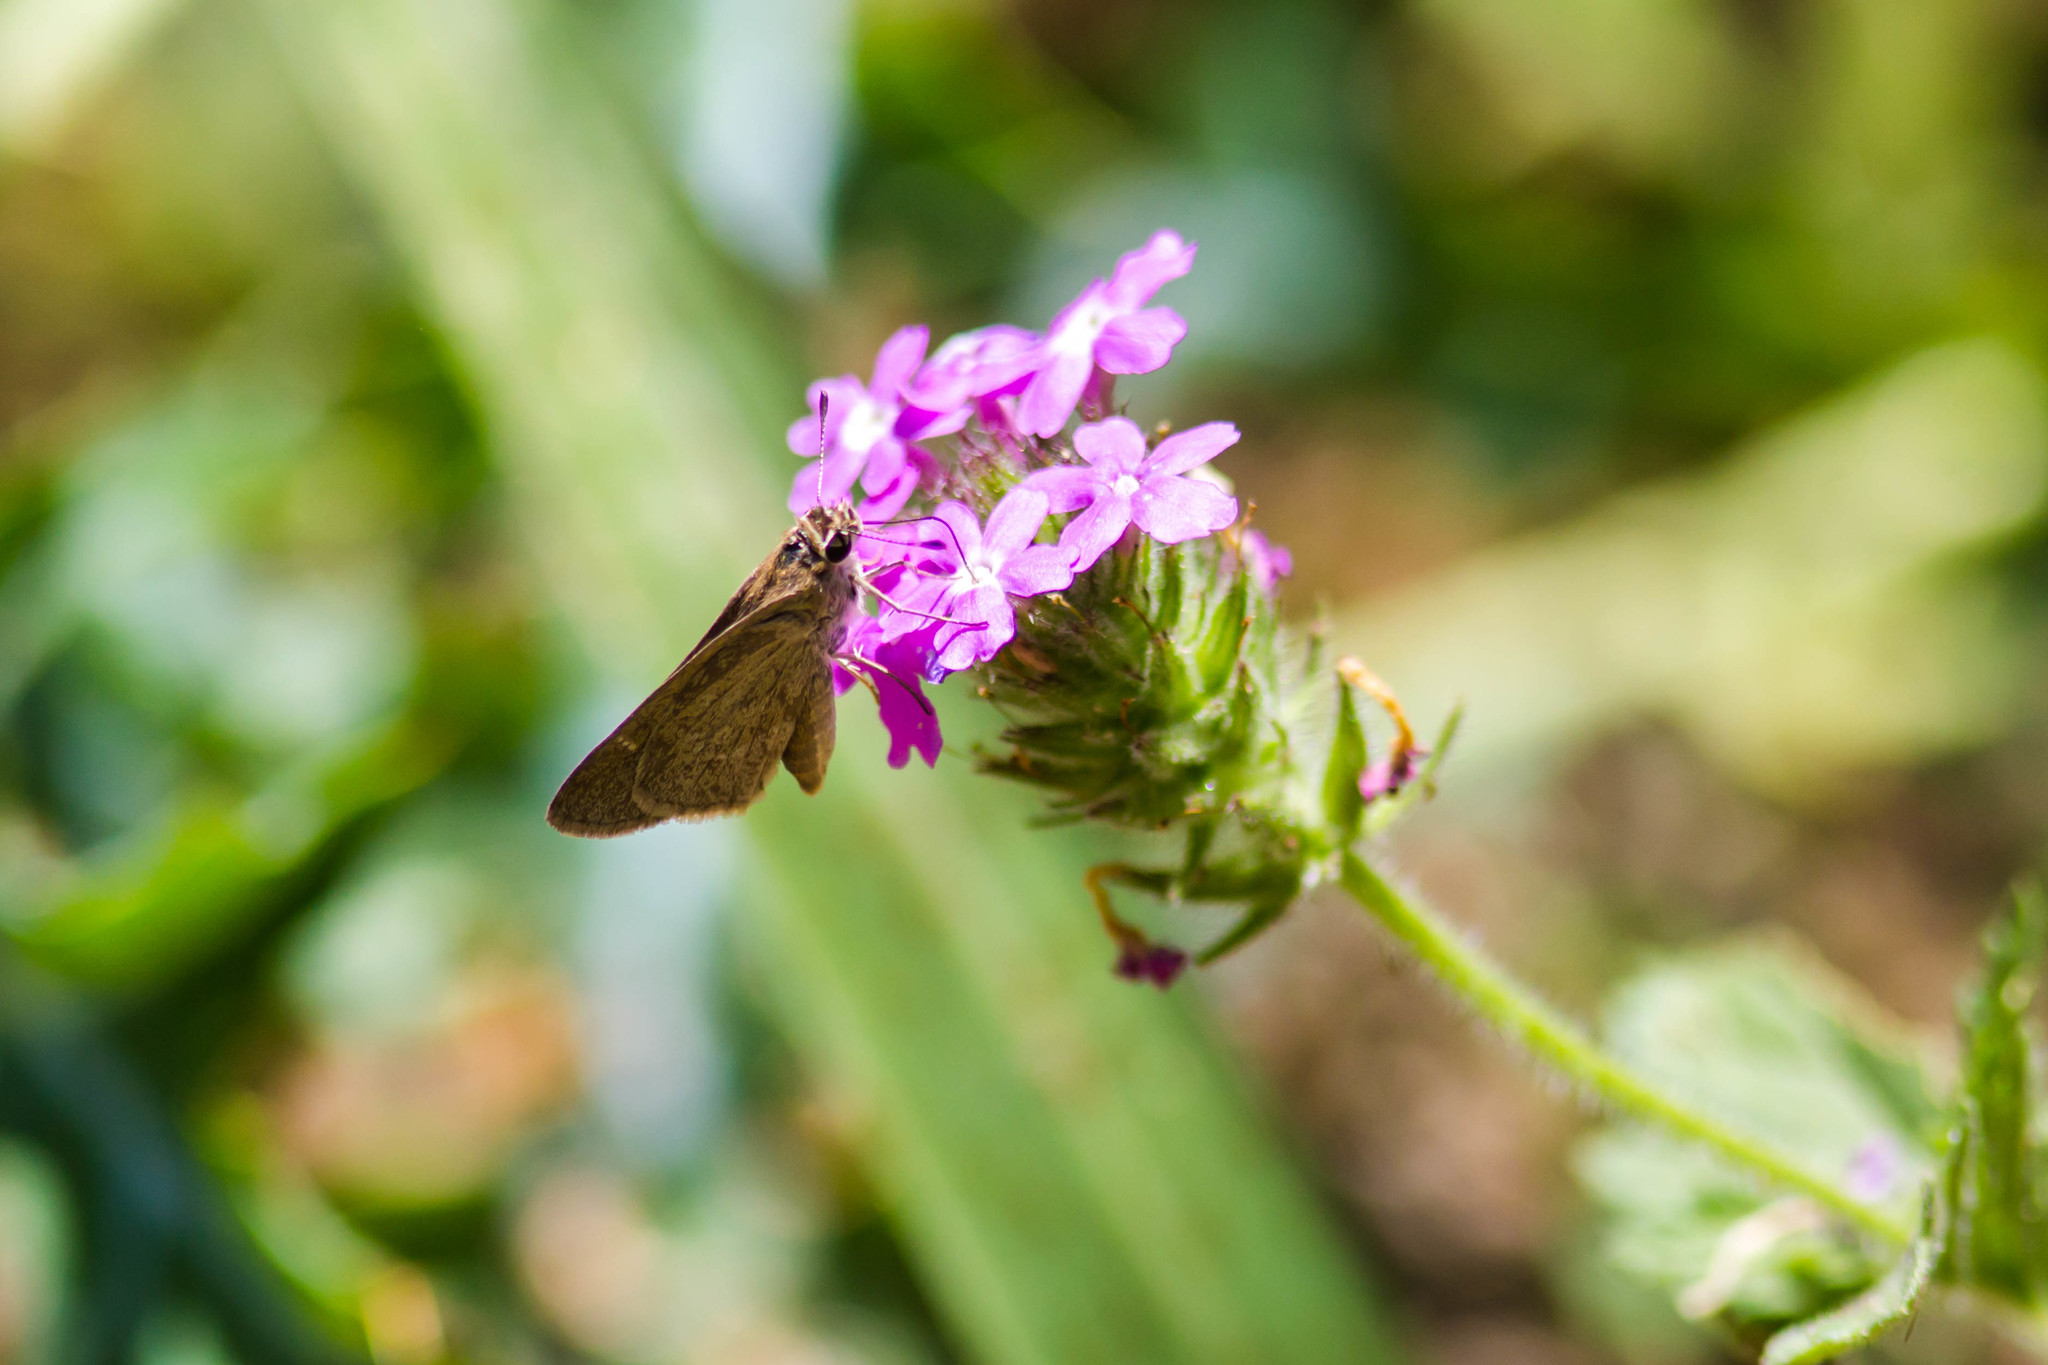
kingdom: Animalia
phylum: Arthropoda
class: Insecta
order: Lepidoptera
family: Hesperiidae
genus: Lerodea
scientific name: Lerodea eufala
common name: Eufala skipper
